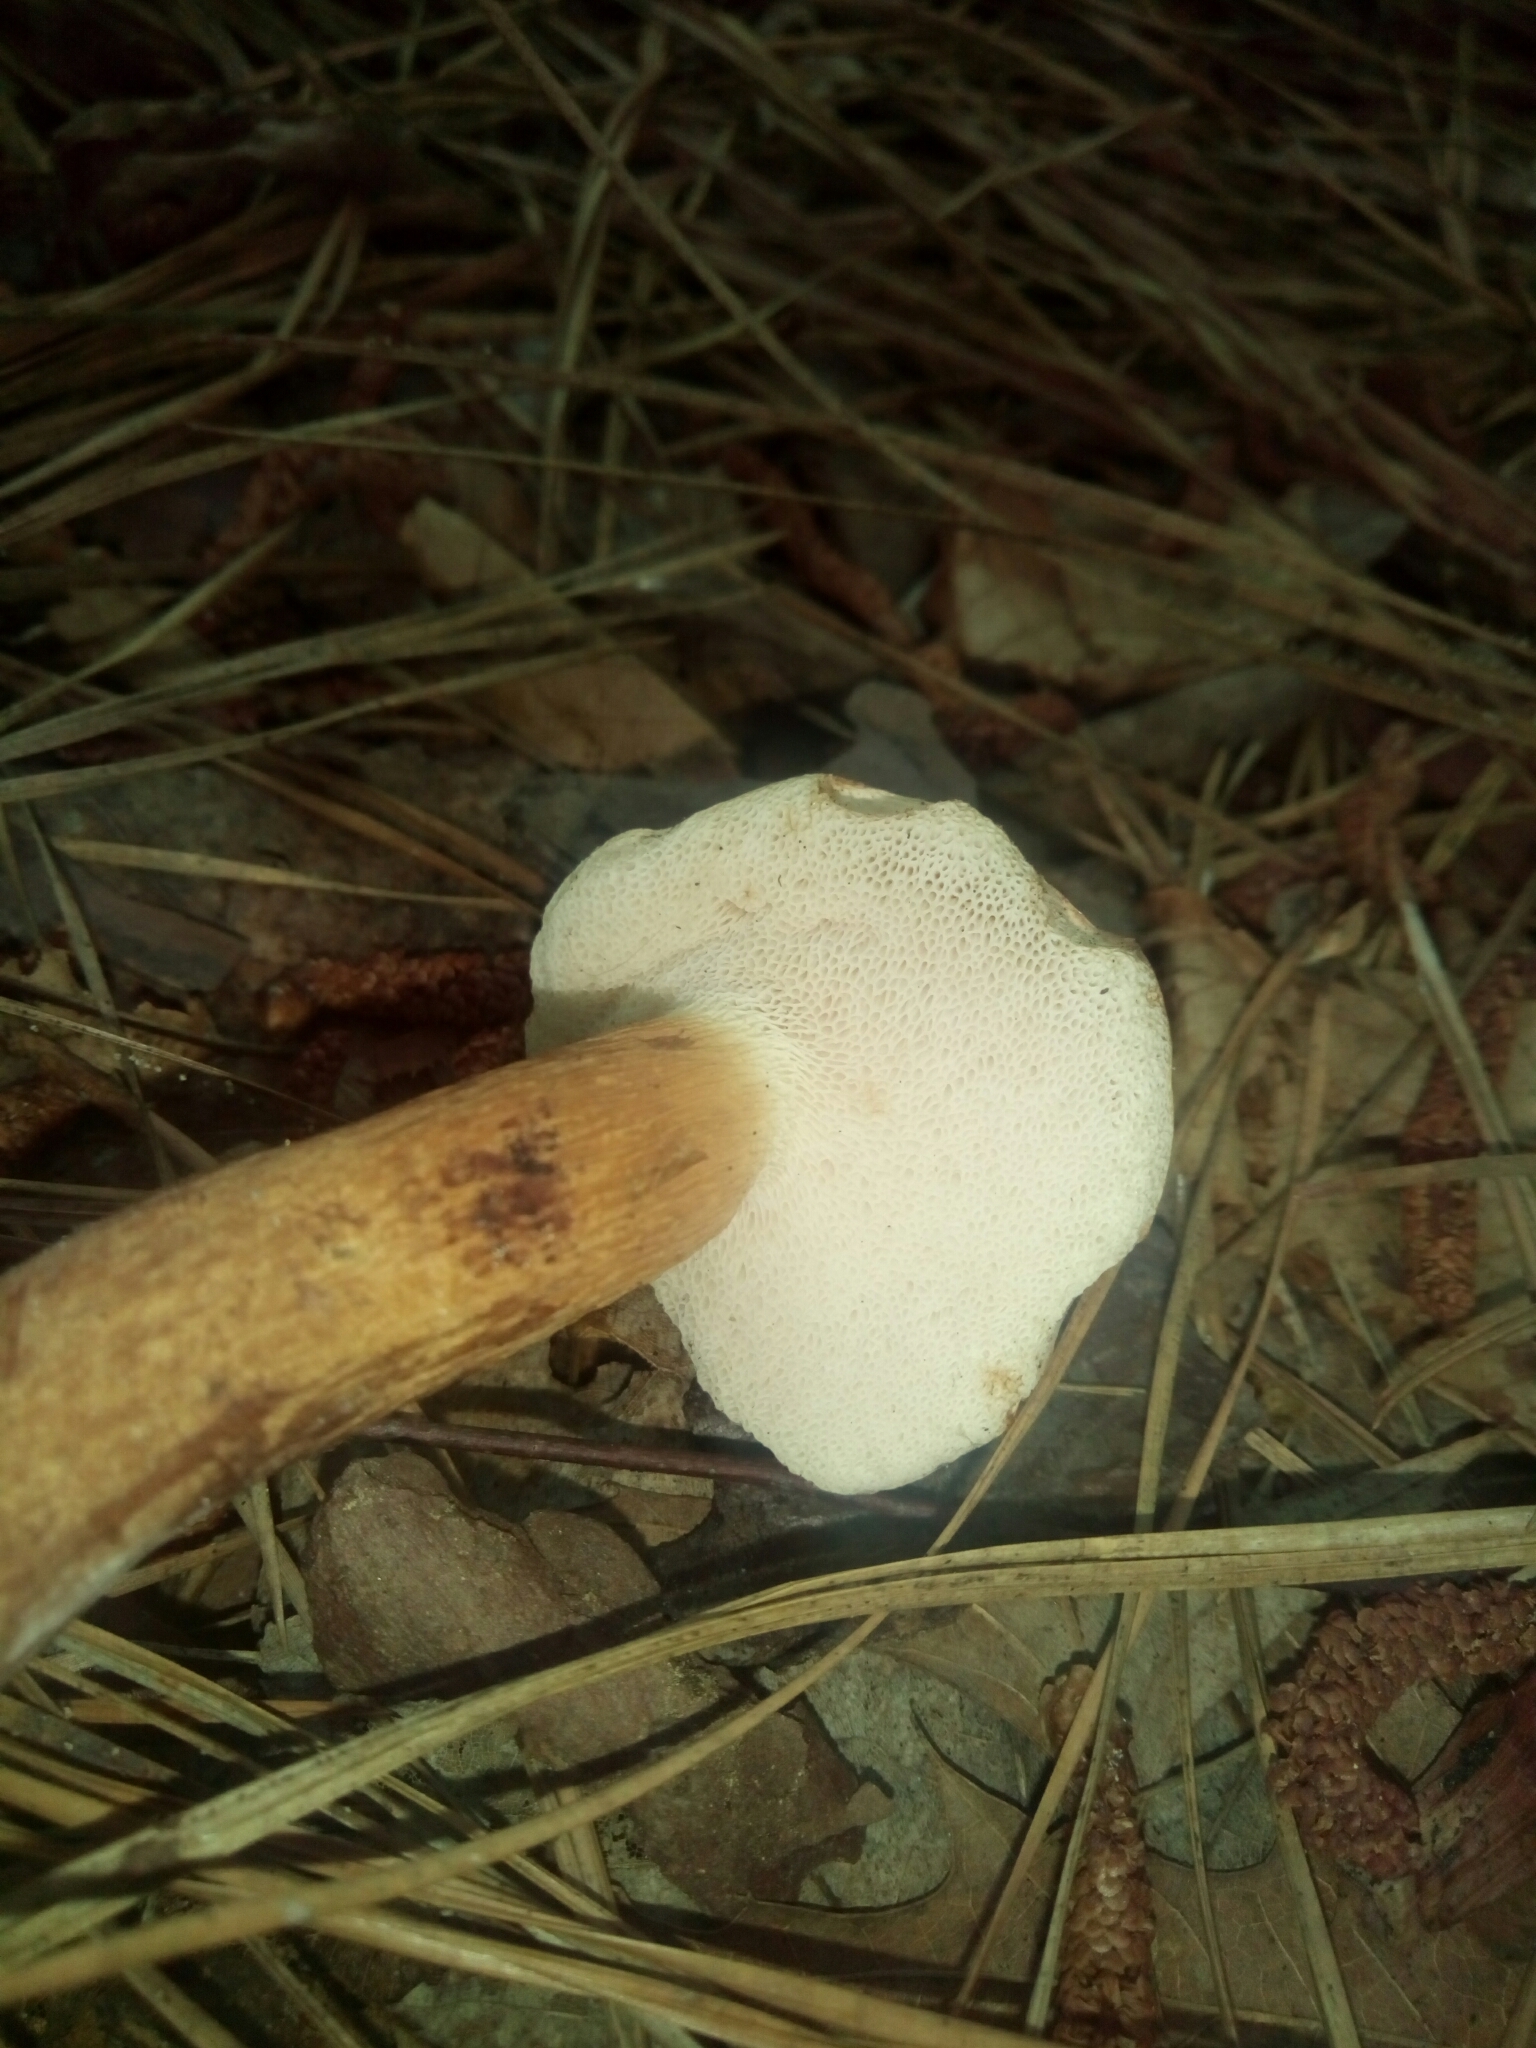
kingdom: Fungi
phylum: Basidiomycota
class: Agaricomycetes
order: Boletales
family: Boletaceae
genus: Tylopilus
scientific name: Tylopilus felleus
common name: Bitter bolete
